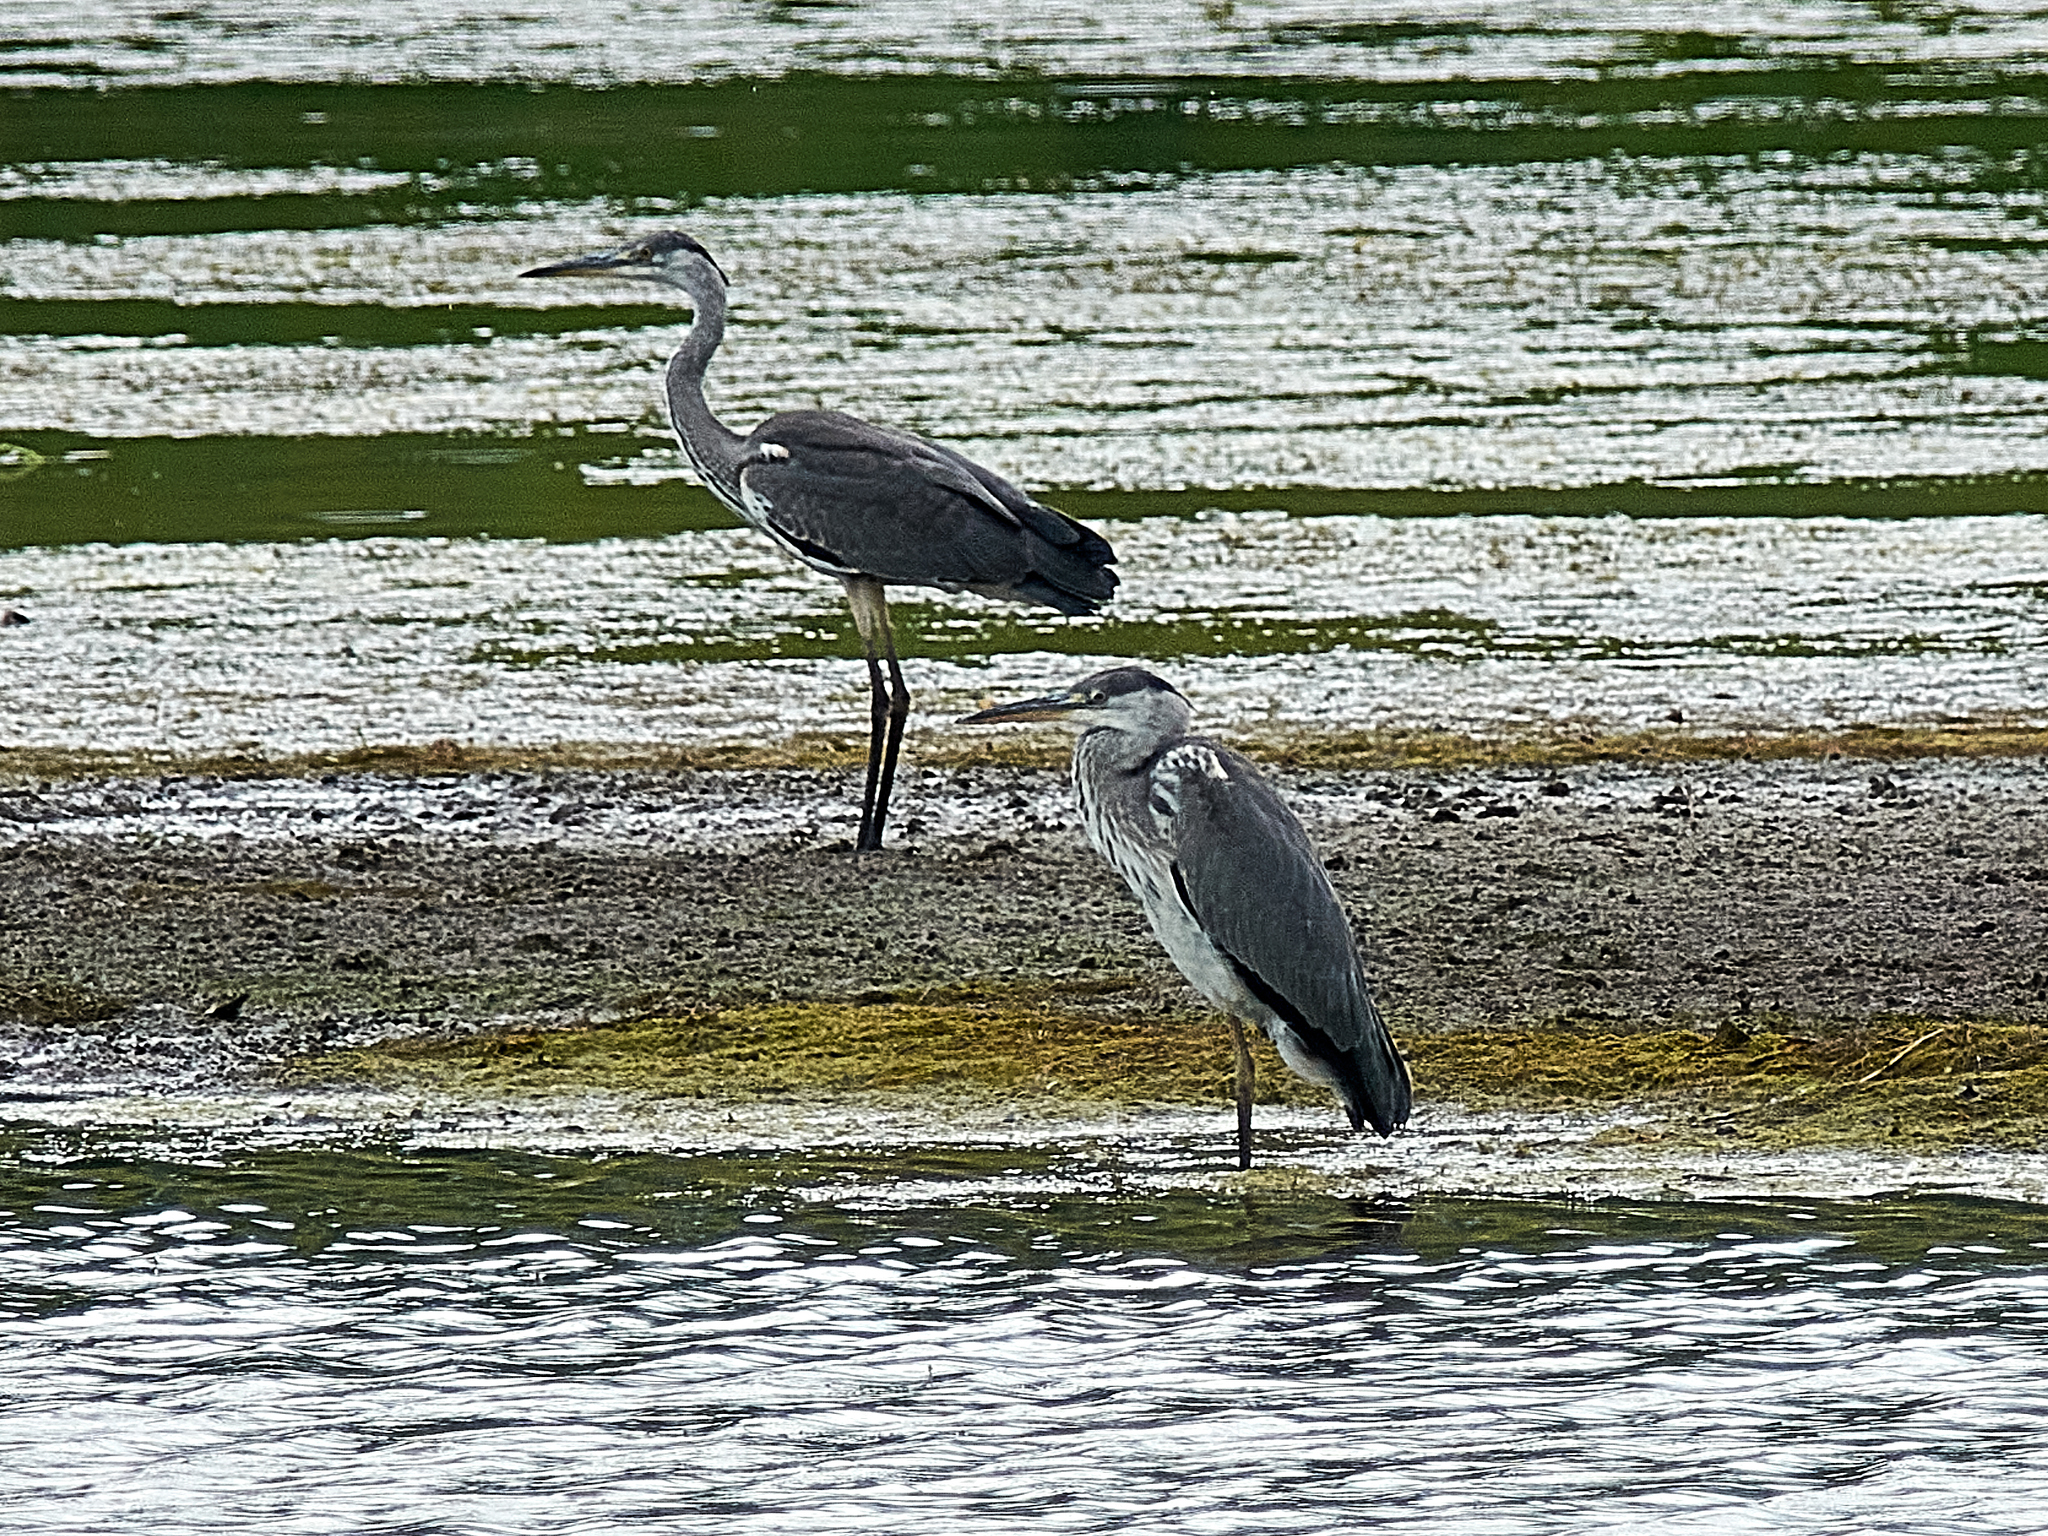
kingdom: Animalia
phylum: Chordata
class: Aves
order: Pelecaniformes
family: Ardeidae
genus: Ardea
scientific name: Ardea cinerea
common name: Grey heron
